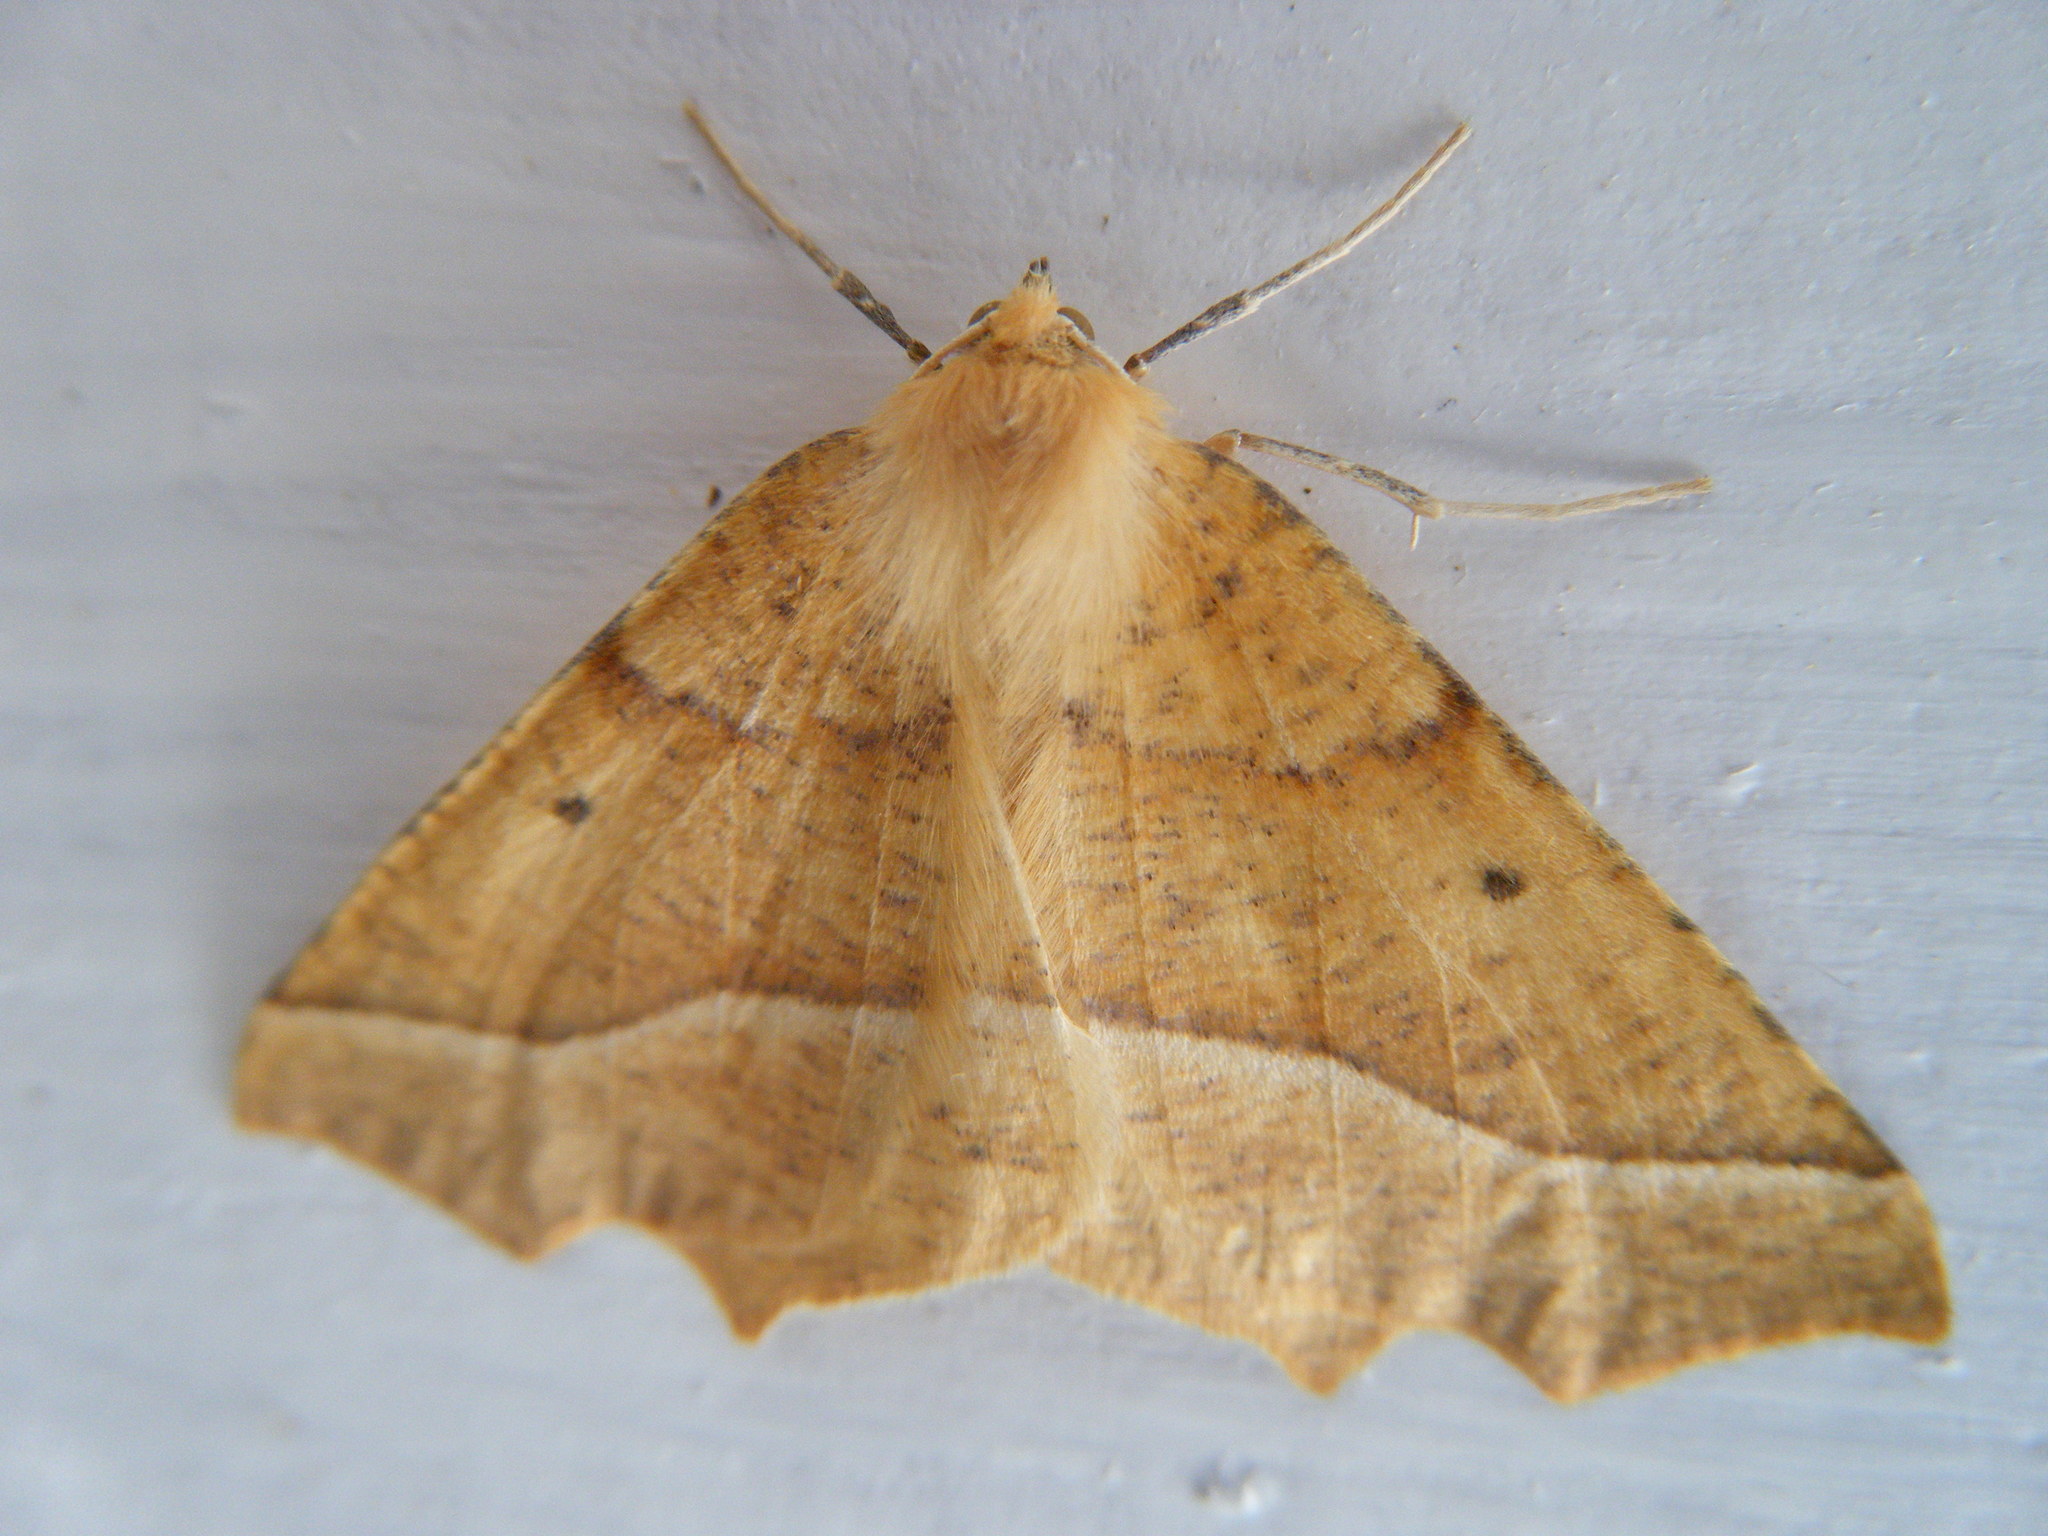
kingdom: Animalia
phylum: Arthropoda
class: Insecta
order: Lepidoptera
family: Geometridae
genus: Synaxis
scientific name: Synaxis jubararia
